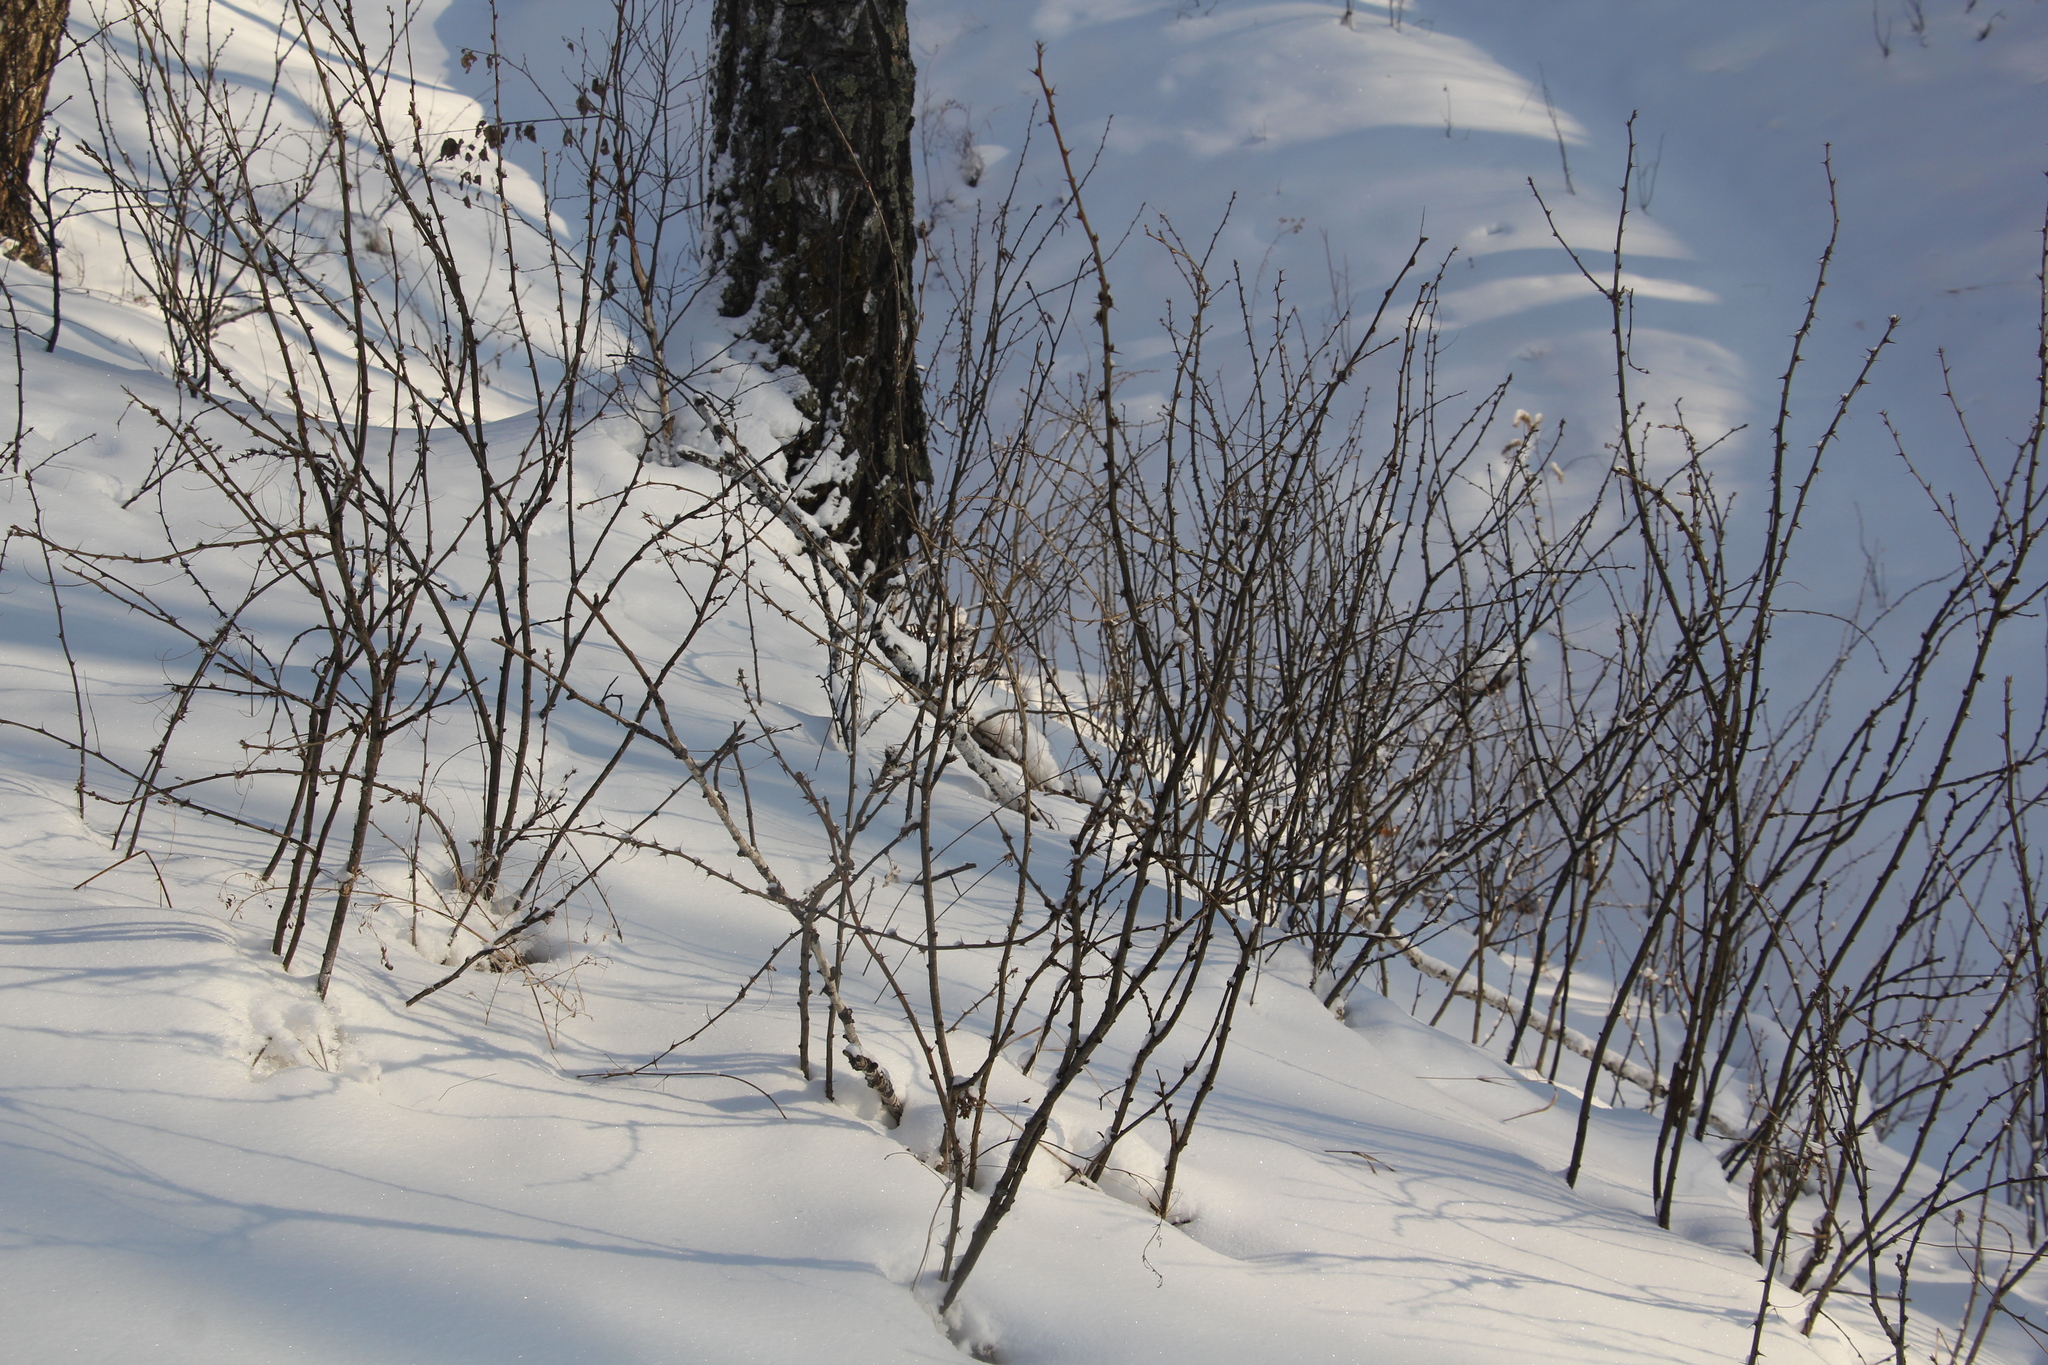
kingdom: Plantae
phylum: Tracheophyta
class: Magnoliopsida
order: Fabales
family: Fabaceae
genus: Caragana
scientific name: Caragana arborescens
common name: Siberian peashrub
